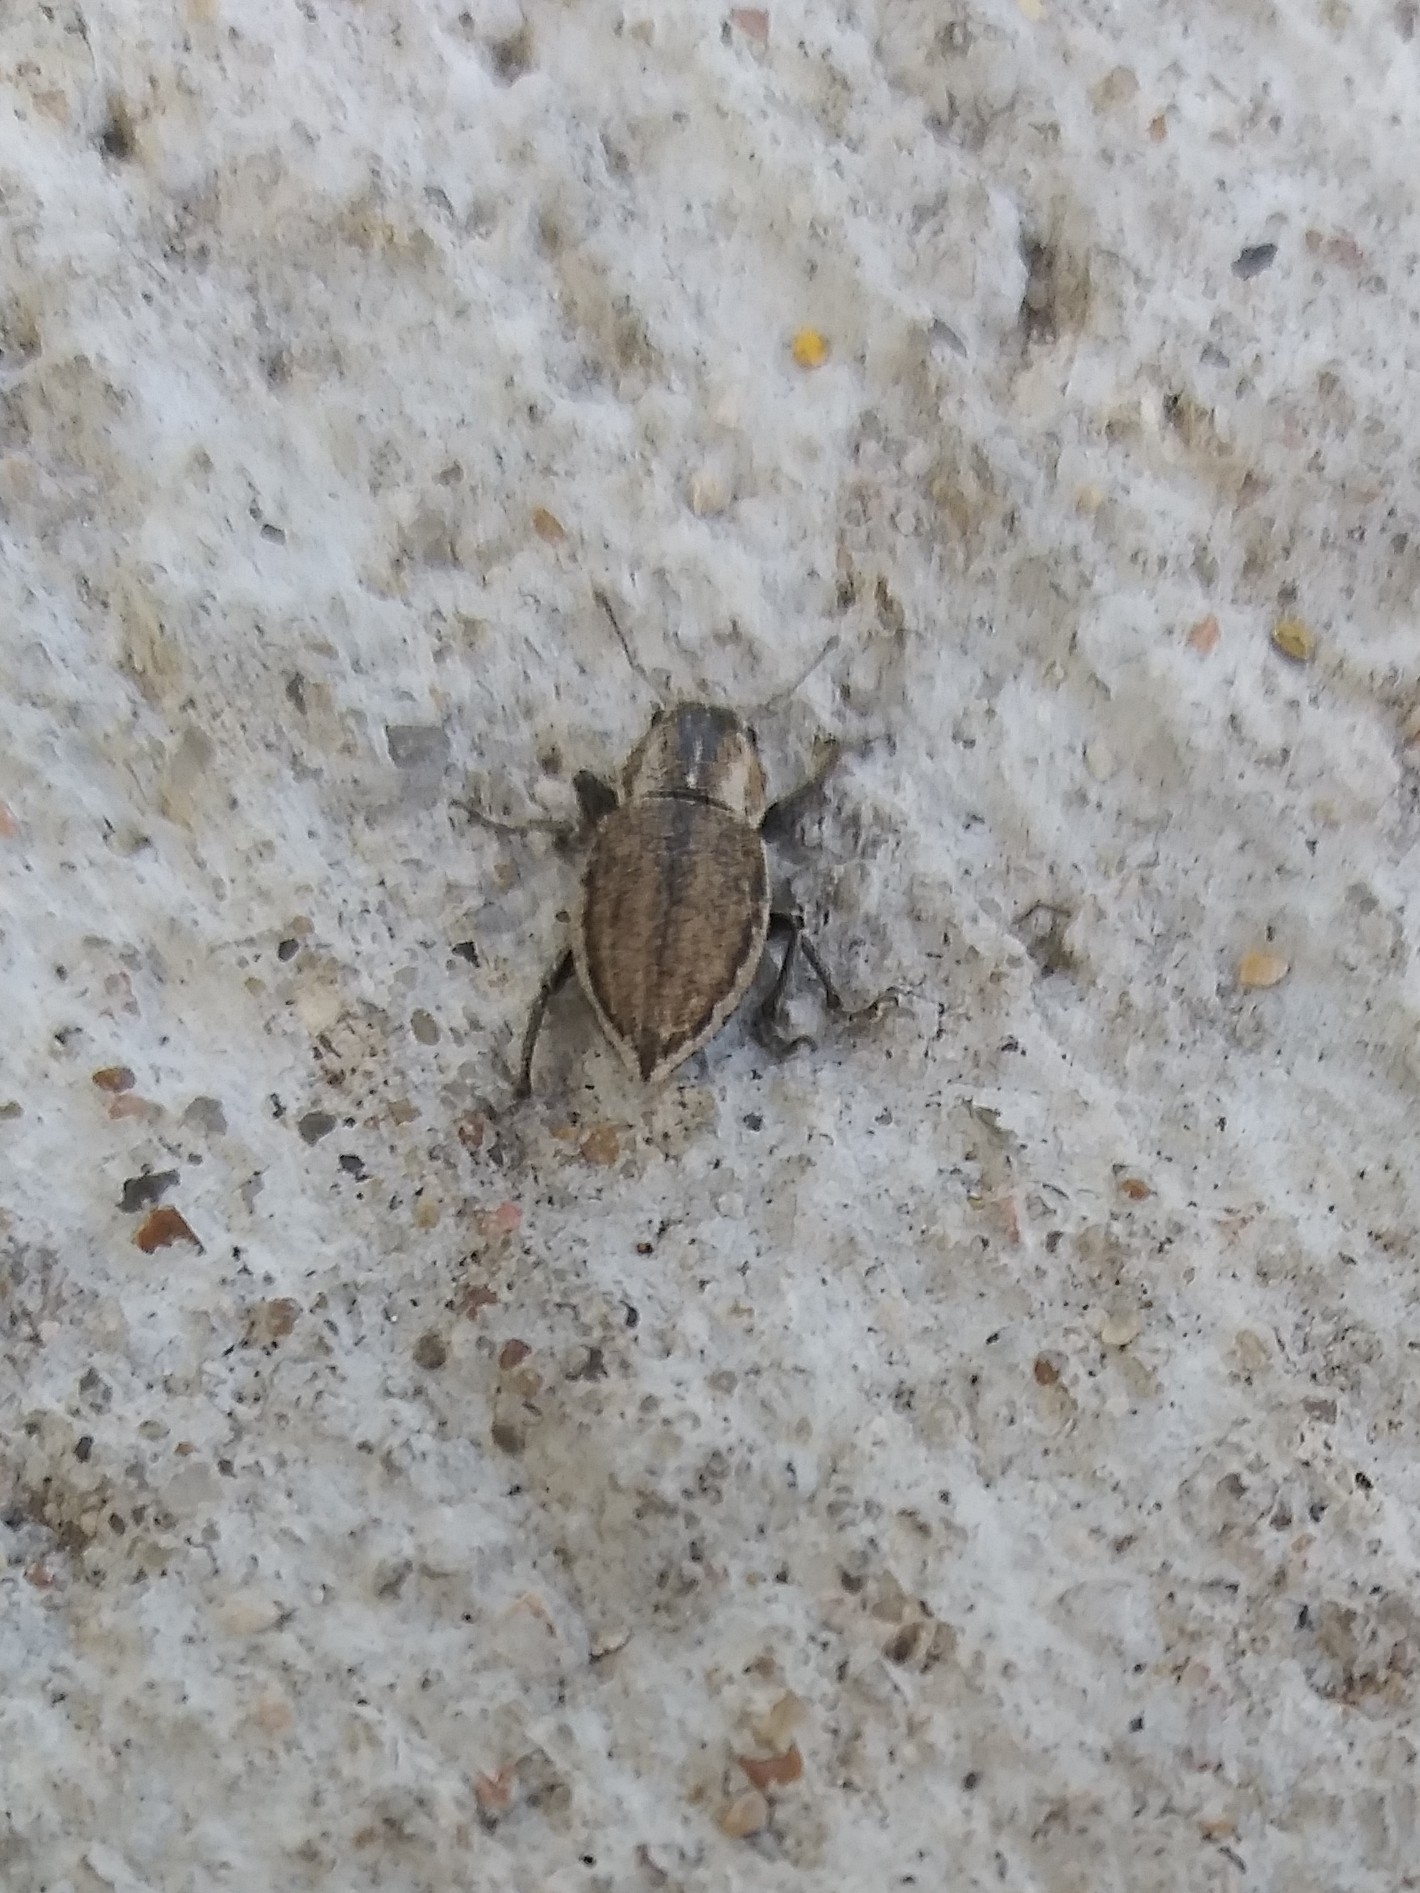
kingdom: Animalia
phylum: Arthropoda
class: Insecta
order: Coleoptera
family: Curculionidae
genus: Naupactus
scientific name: Naupactus peregrinus
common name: Whitefringed beetle
